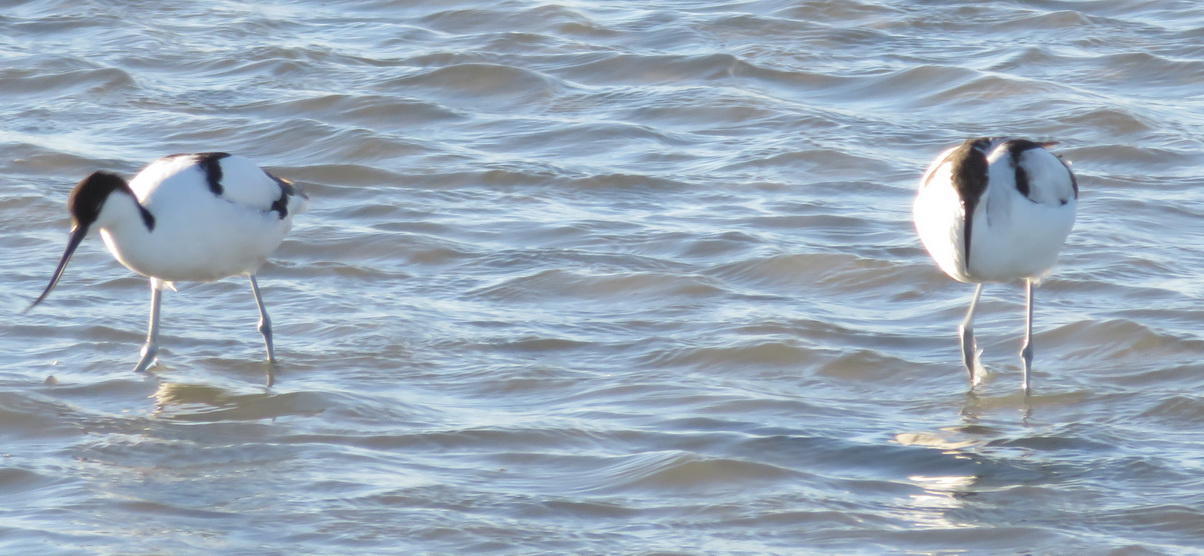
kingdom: Animalia
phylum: Chordata
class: Aves
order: Charadriiformes
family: Recurvirostridae
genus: Recurvirostra
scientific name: Recurvirostra avosetta
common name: Pied avocet
